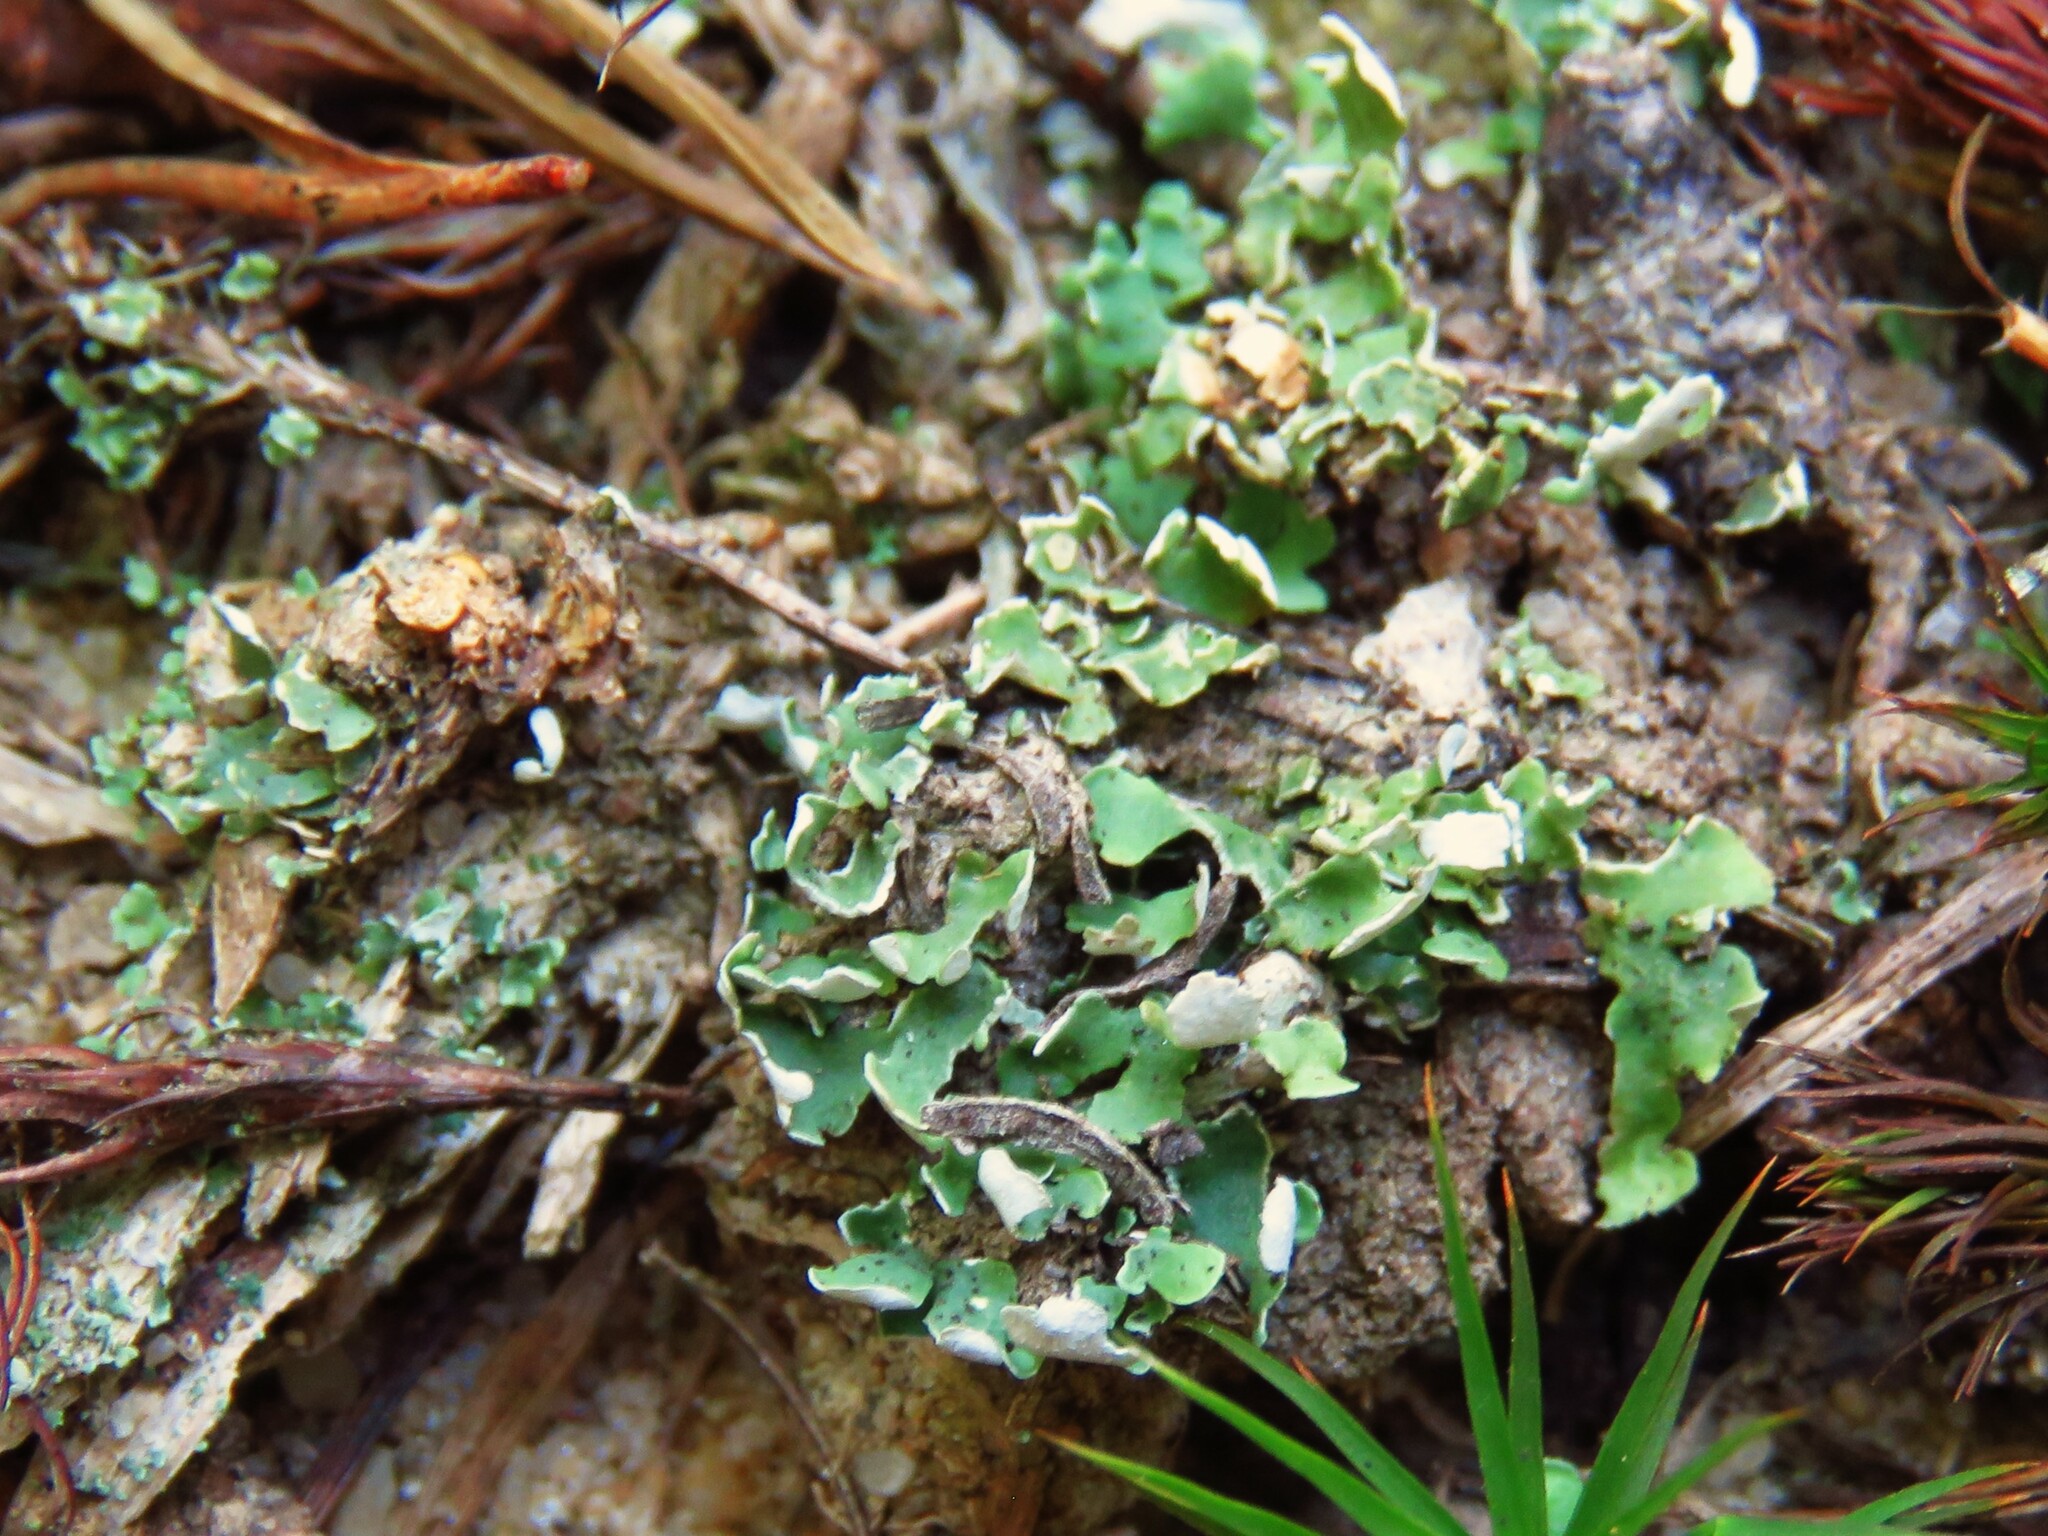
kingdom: Fungi
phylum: Ascomycota
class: Lecanoromycetes
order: Lecanorales
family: Cladoniaceae
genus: Cladonia
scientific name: Cladonia apodocarpa
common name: Stalkless cladonia
